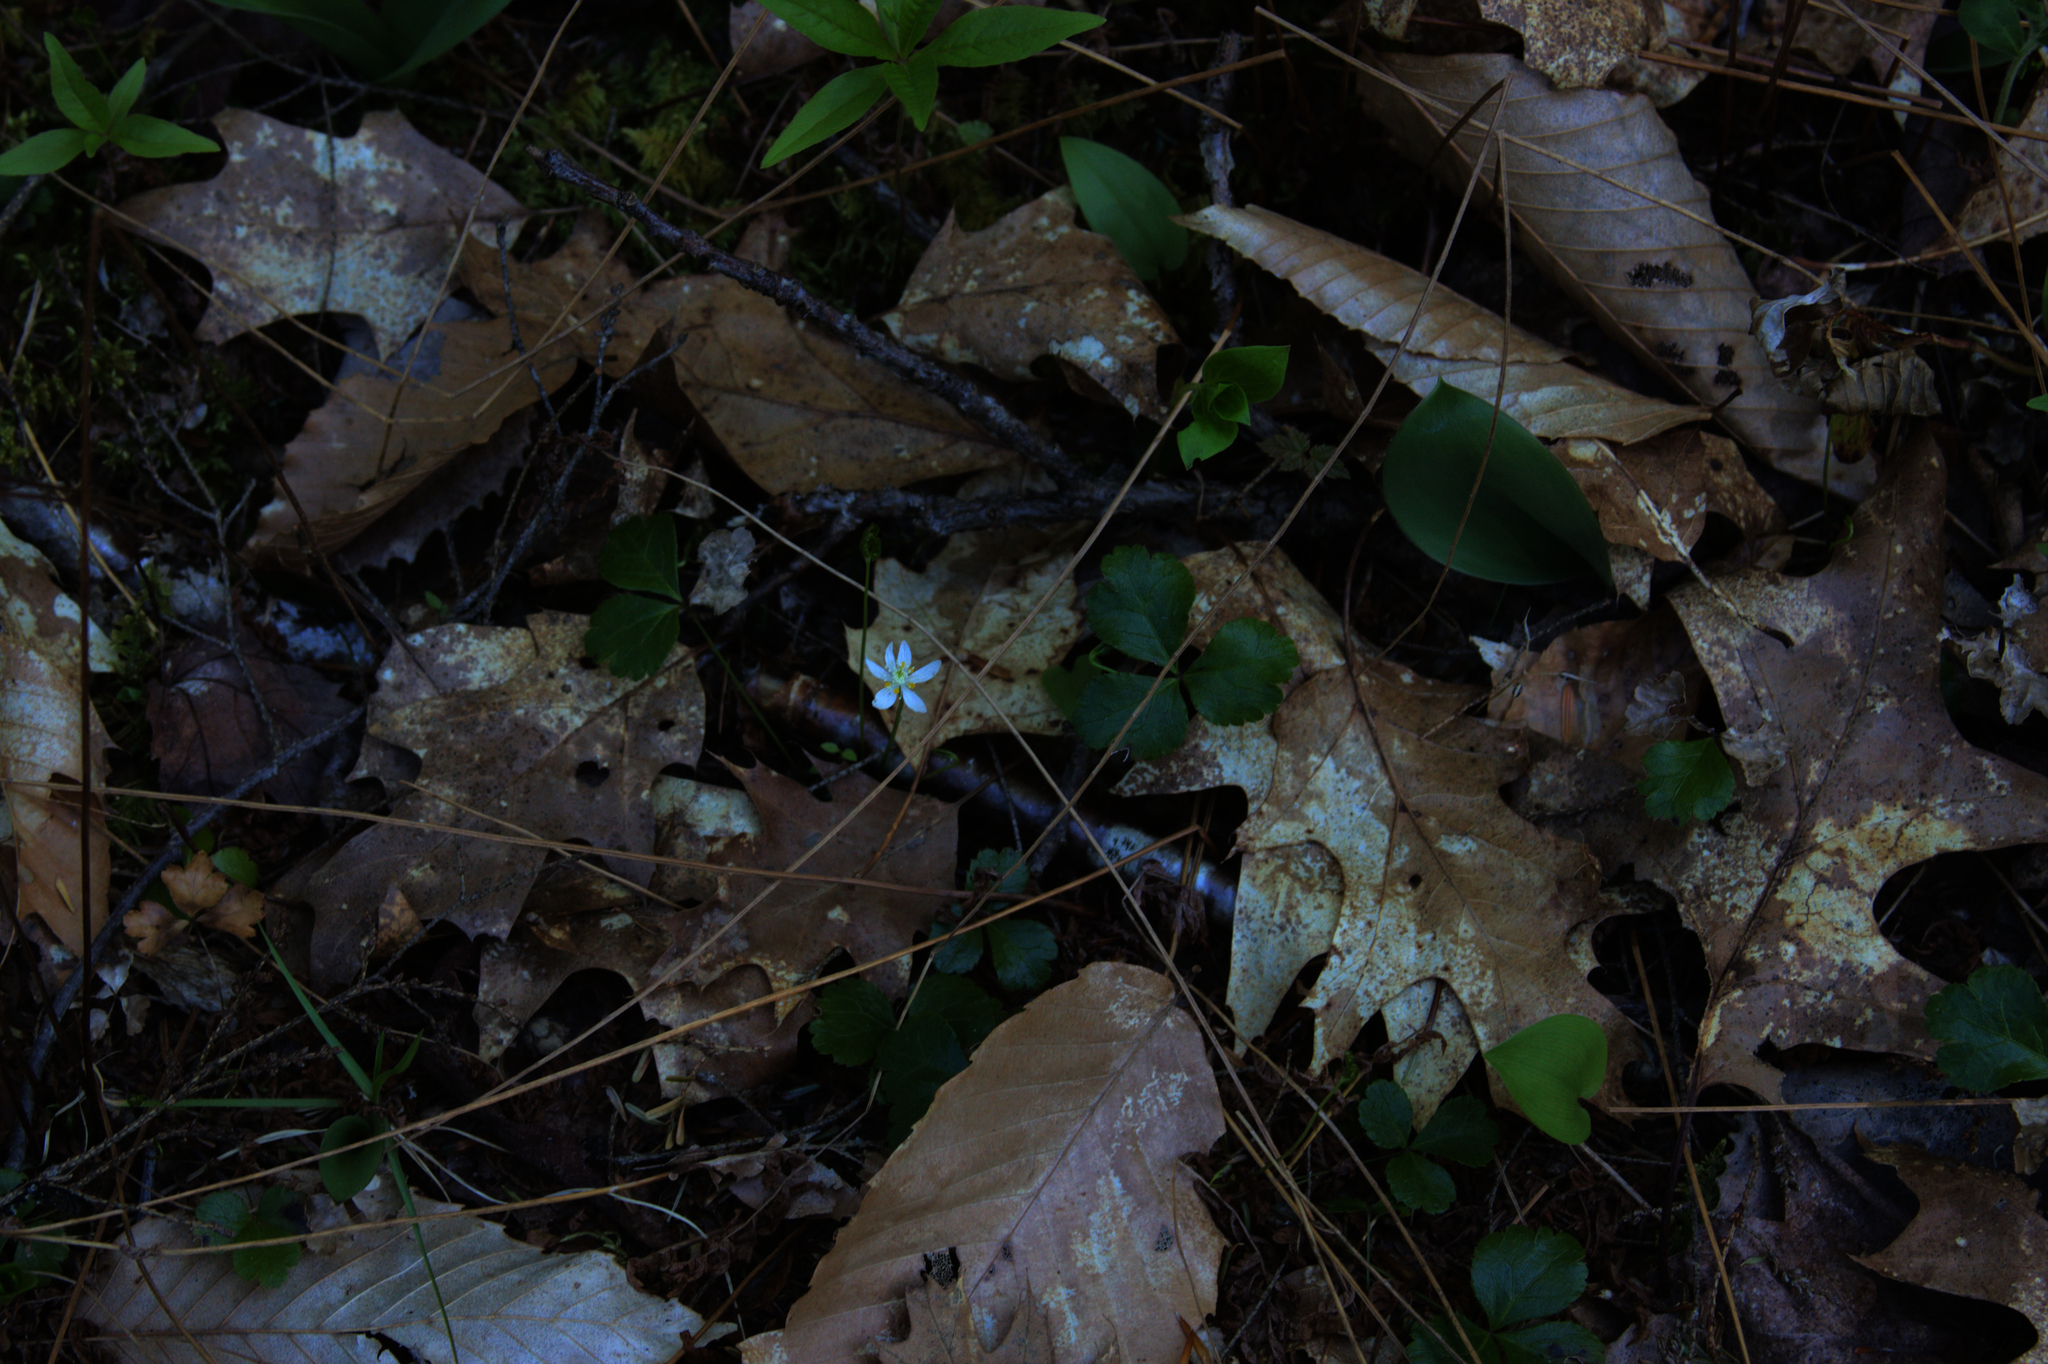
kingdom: Plantae
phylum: Tracheophyta
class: Magnoliopsida
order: Ranunculales
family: Ranunculaceae
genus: Coptis
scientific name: Coptis trifolia
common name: Canker-root
